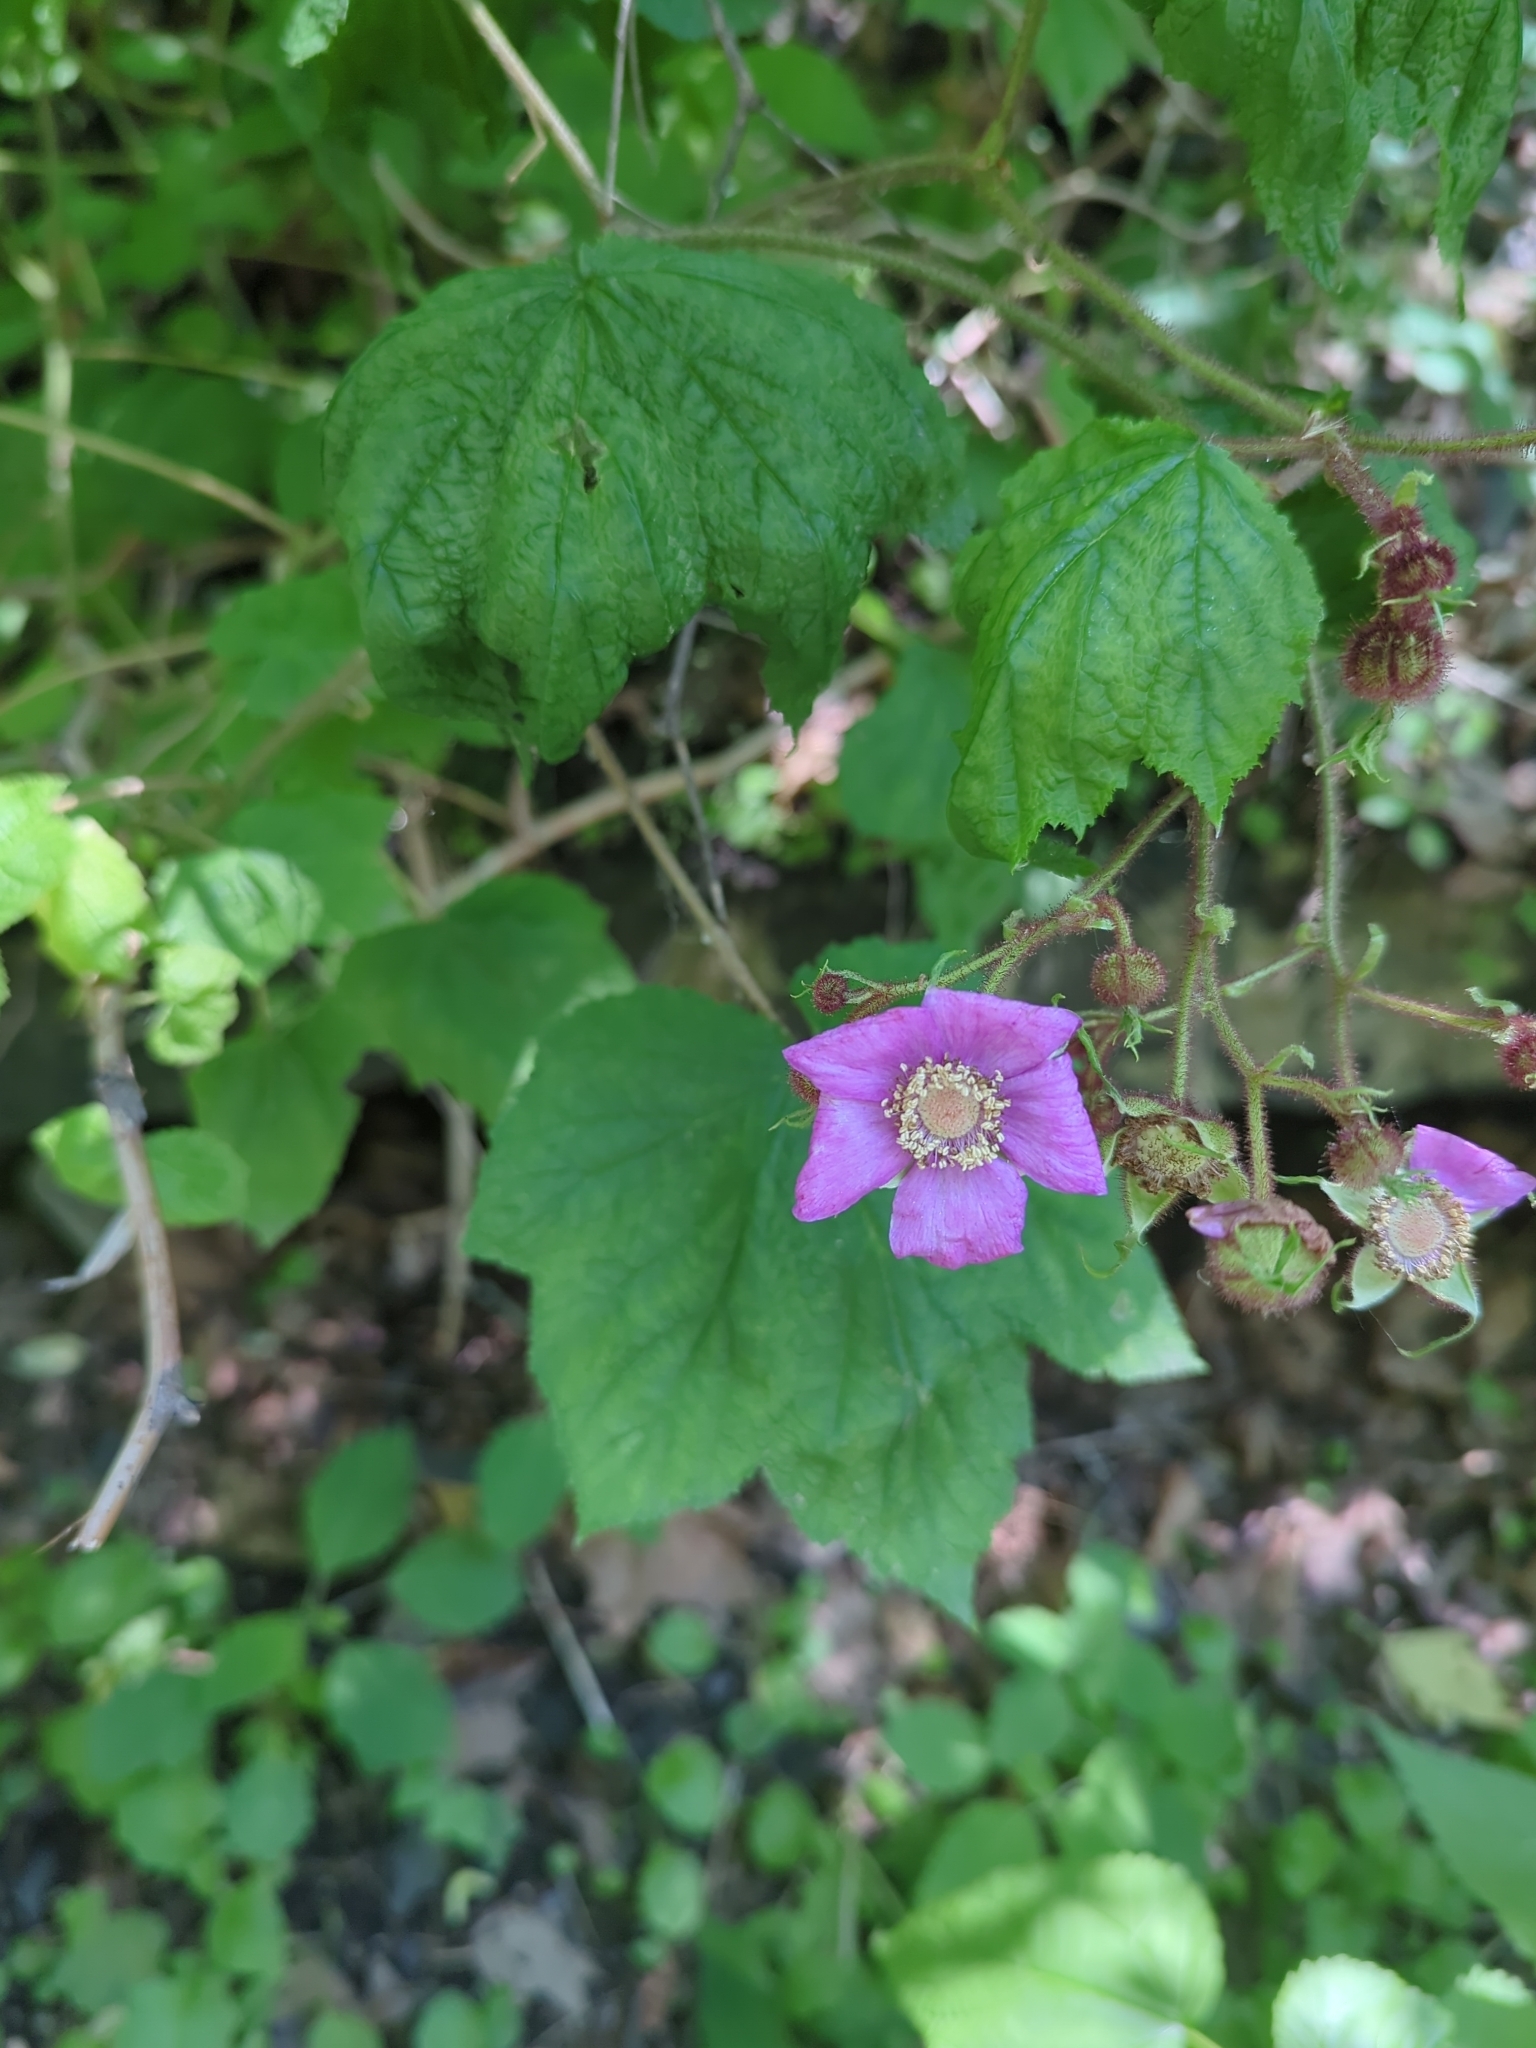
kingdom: Plantae
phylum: Tracheophyta
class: Magnoliopsida
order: Rosales
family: Rosaceae
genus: Rubus
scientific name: Rubus odoratus
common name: Purple-flowered raspberry
